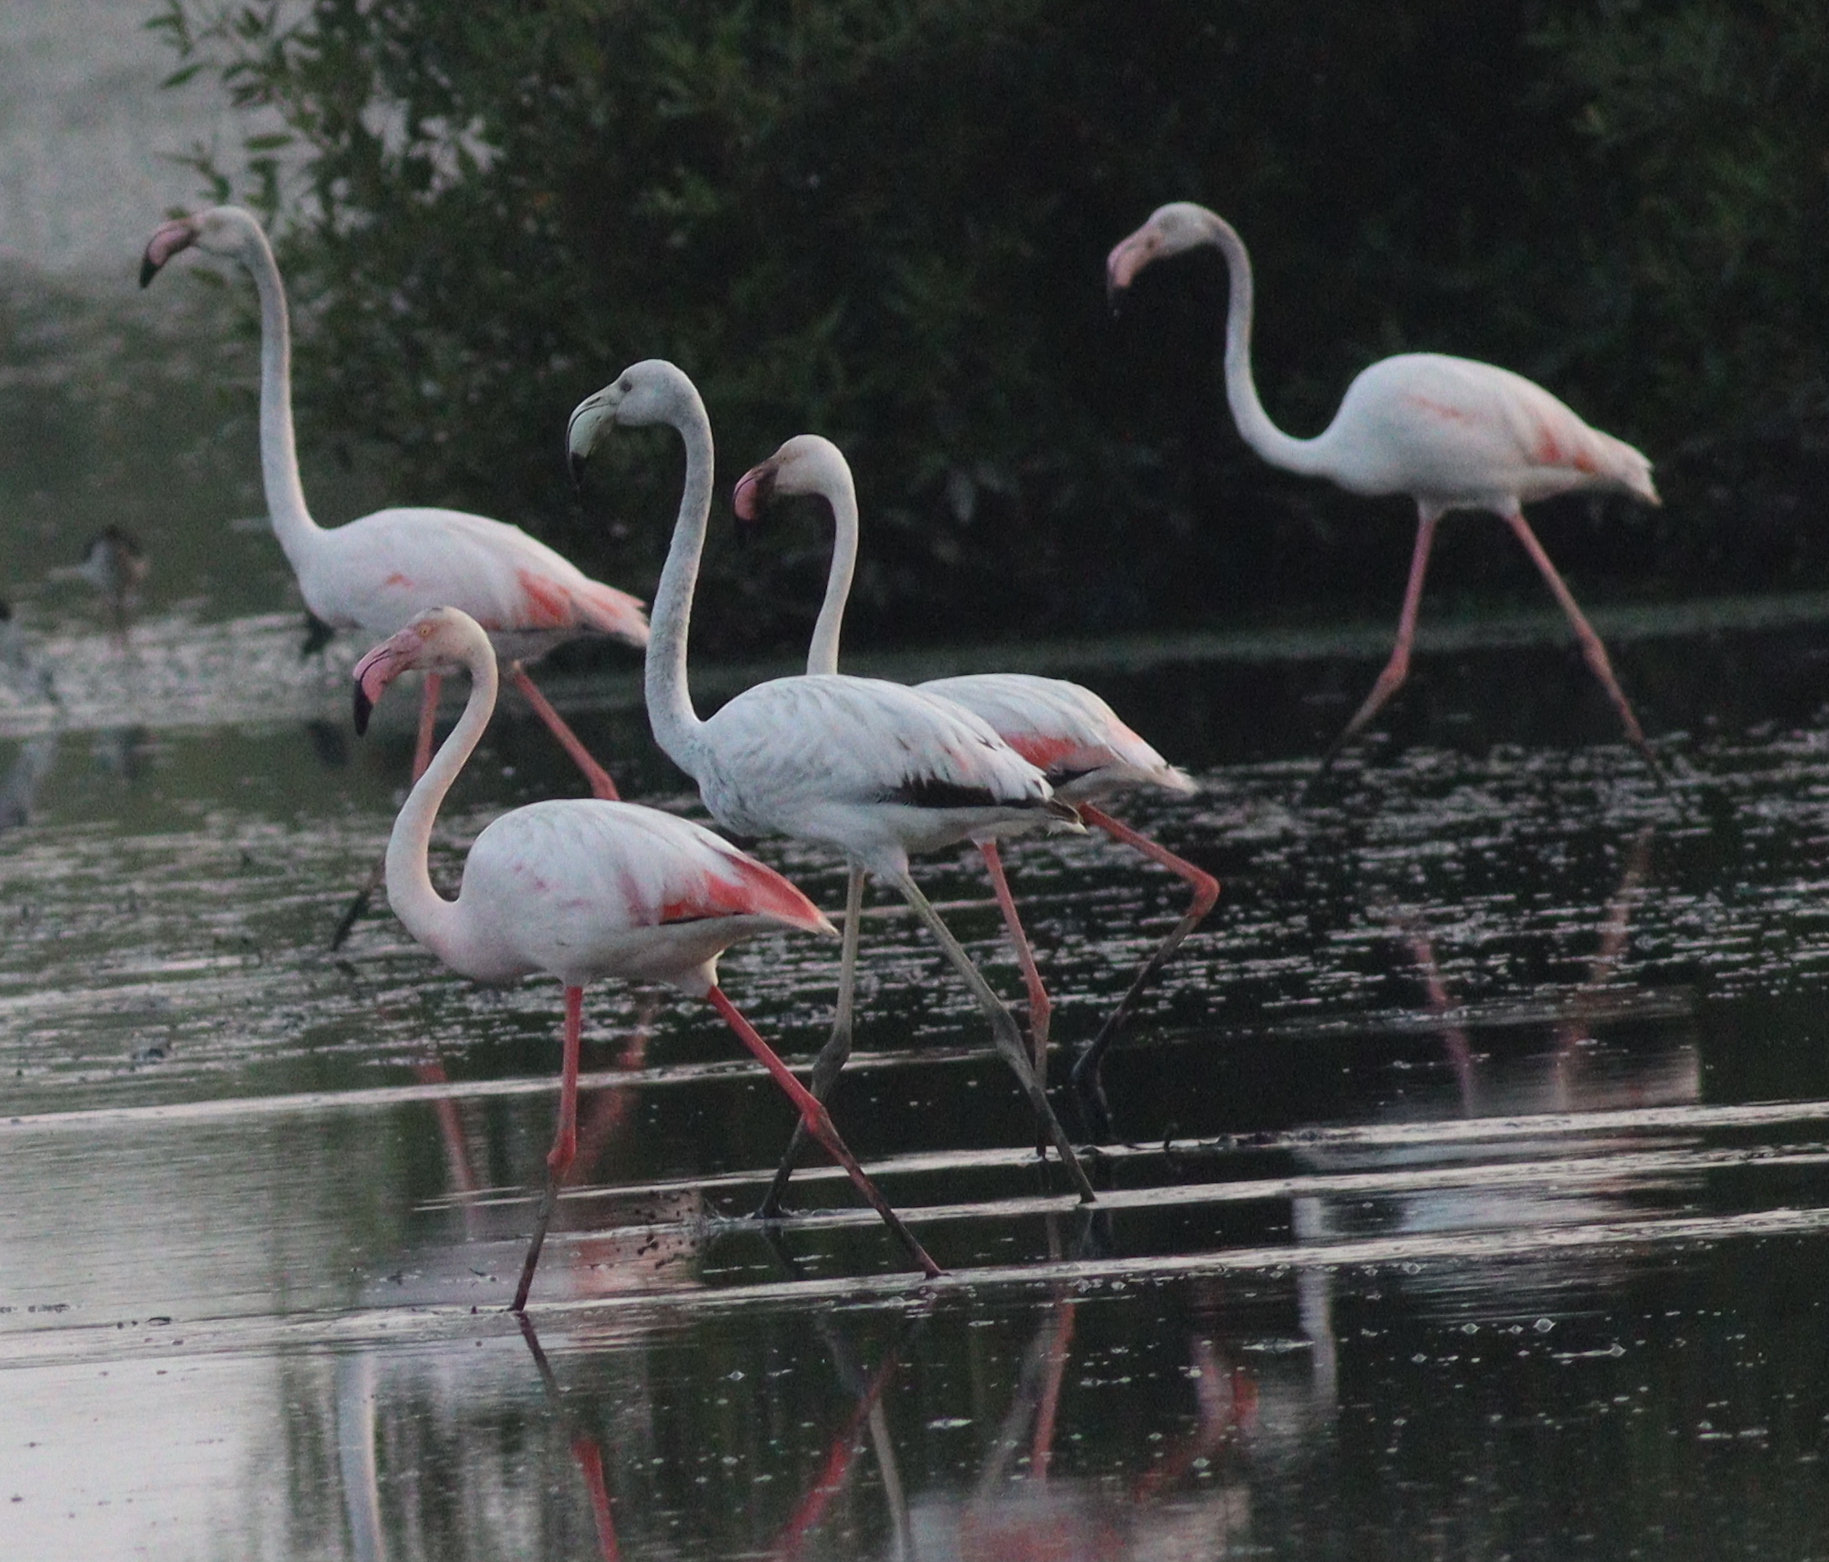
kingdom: Animalia
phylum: Chordata
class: Aves
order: Phoenicopteriformes
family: Phoenicopteridae
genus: Phoenicopterus
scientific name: Phoenicopterus roseus
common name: Greater flamingo
